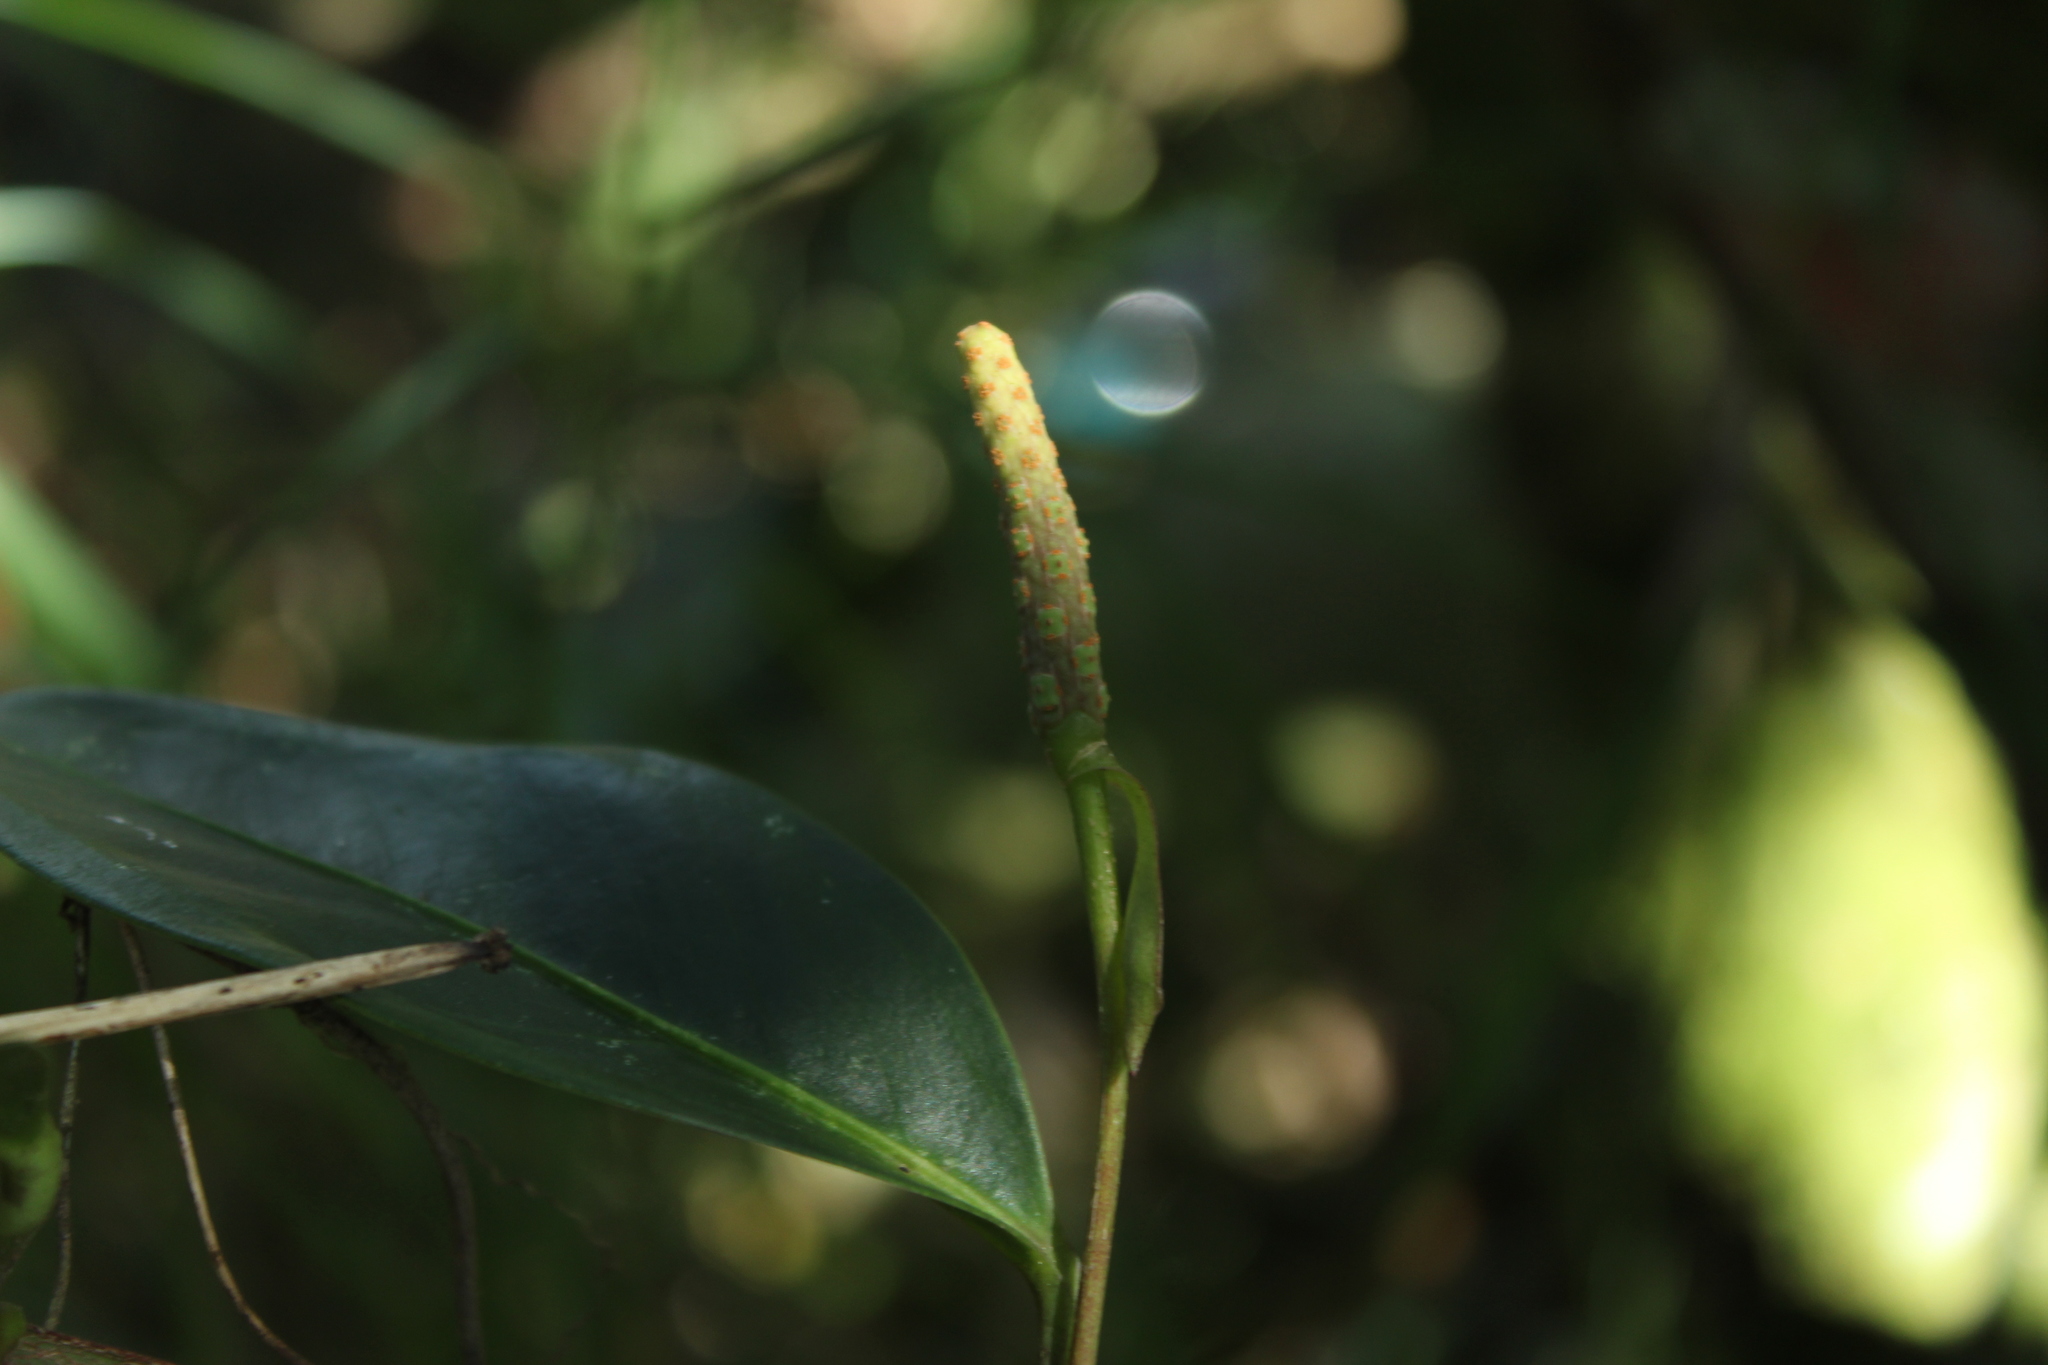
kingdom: Plantae
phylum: Tracheophyta
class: Liliopsida
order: Alismatales
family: Araceae
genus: Anthurium
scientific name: Anthurium scandens
